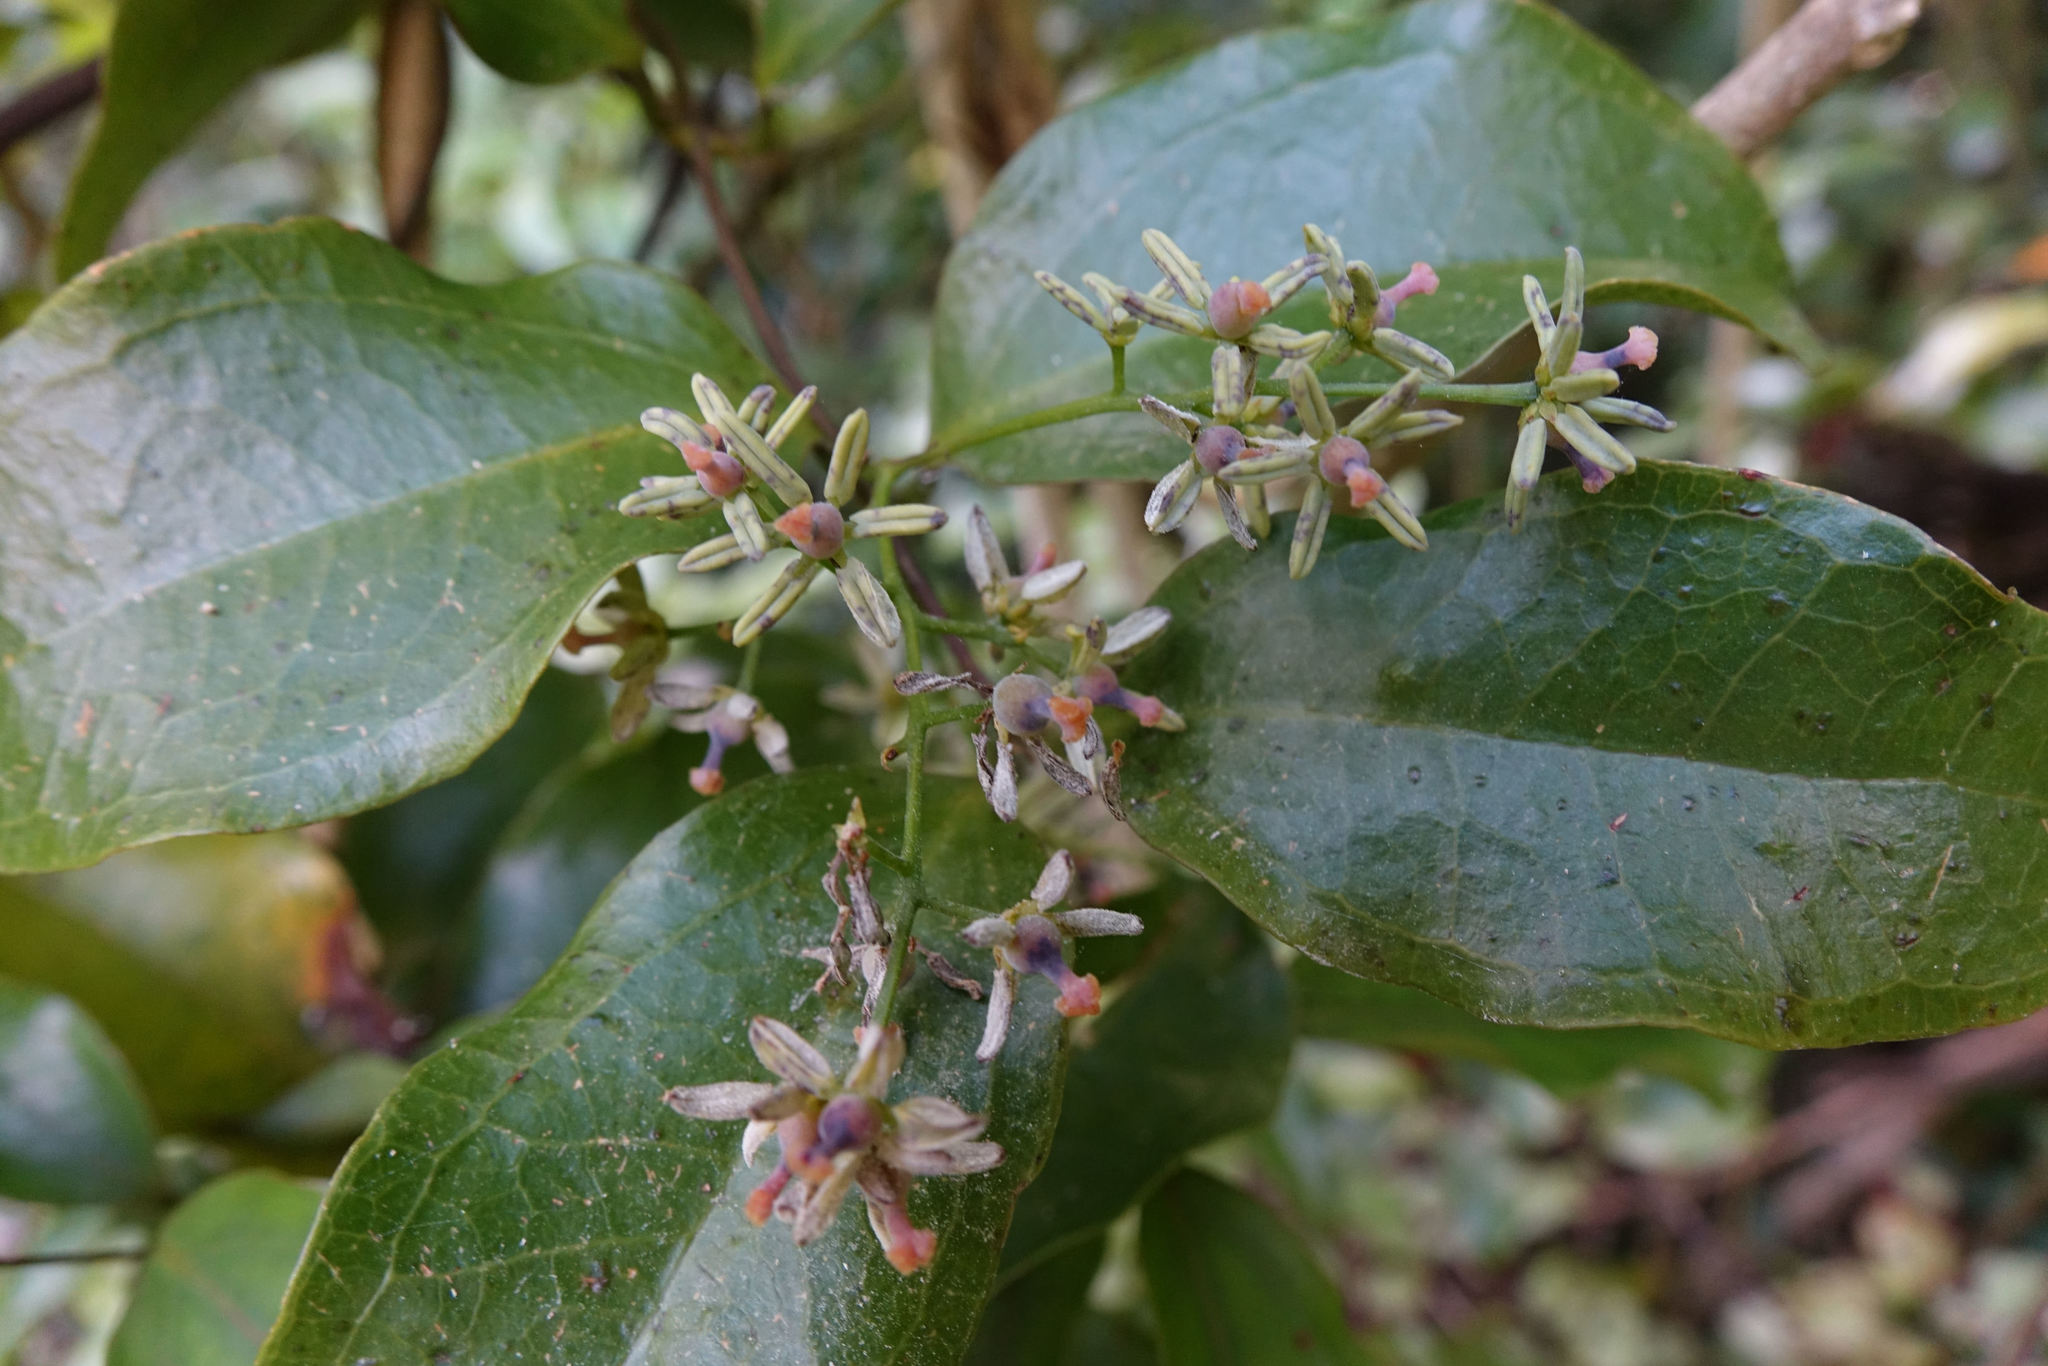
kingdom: Plantae
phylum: Tracheophyta
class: Liliopsida
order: Liliales
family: Ripogonaceae
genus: Ripogonum
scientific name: Ripogonum scandens
